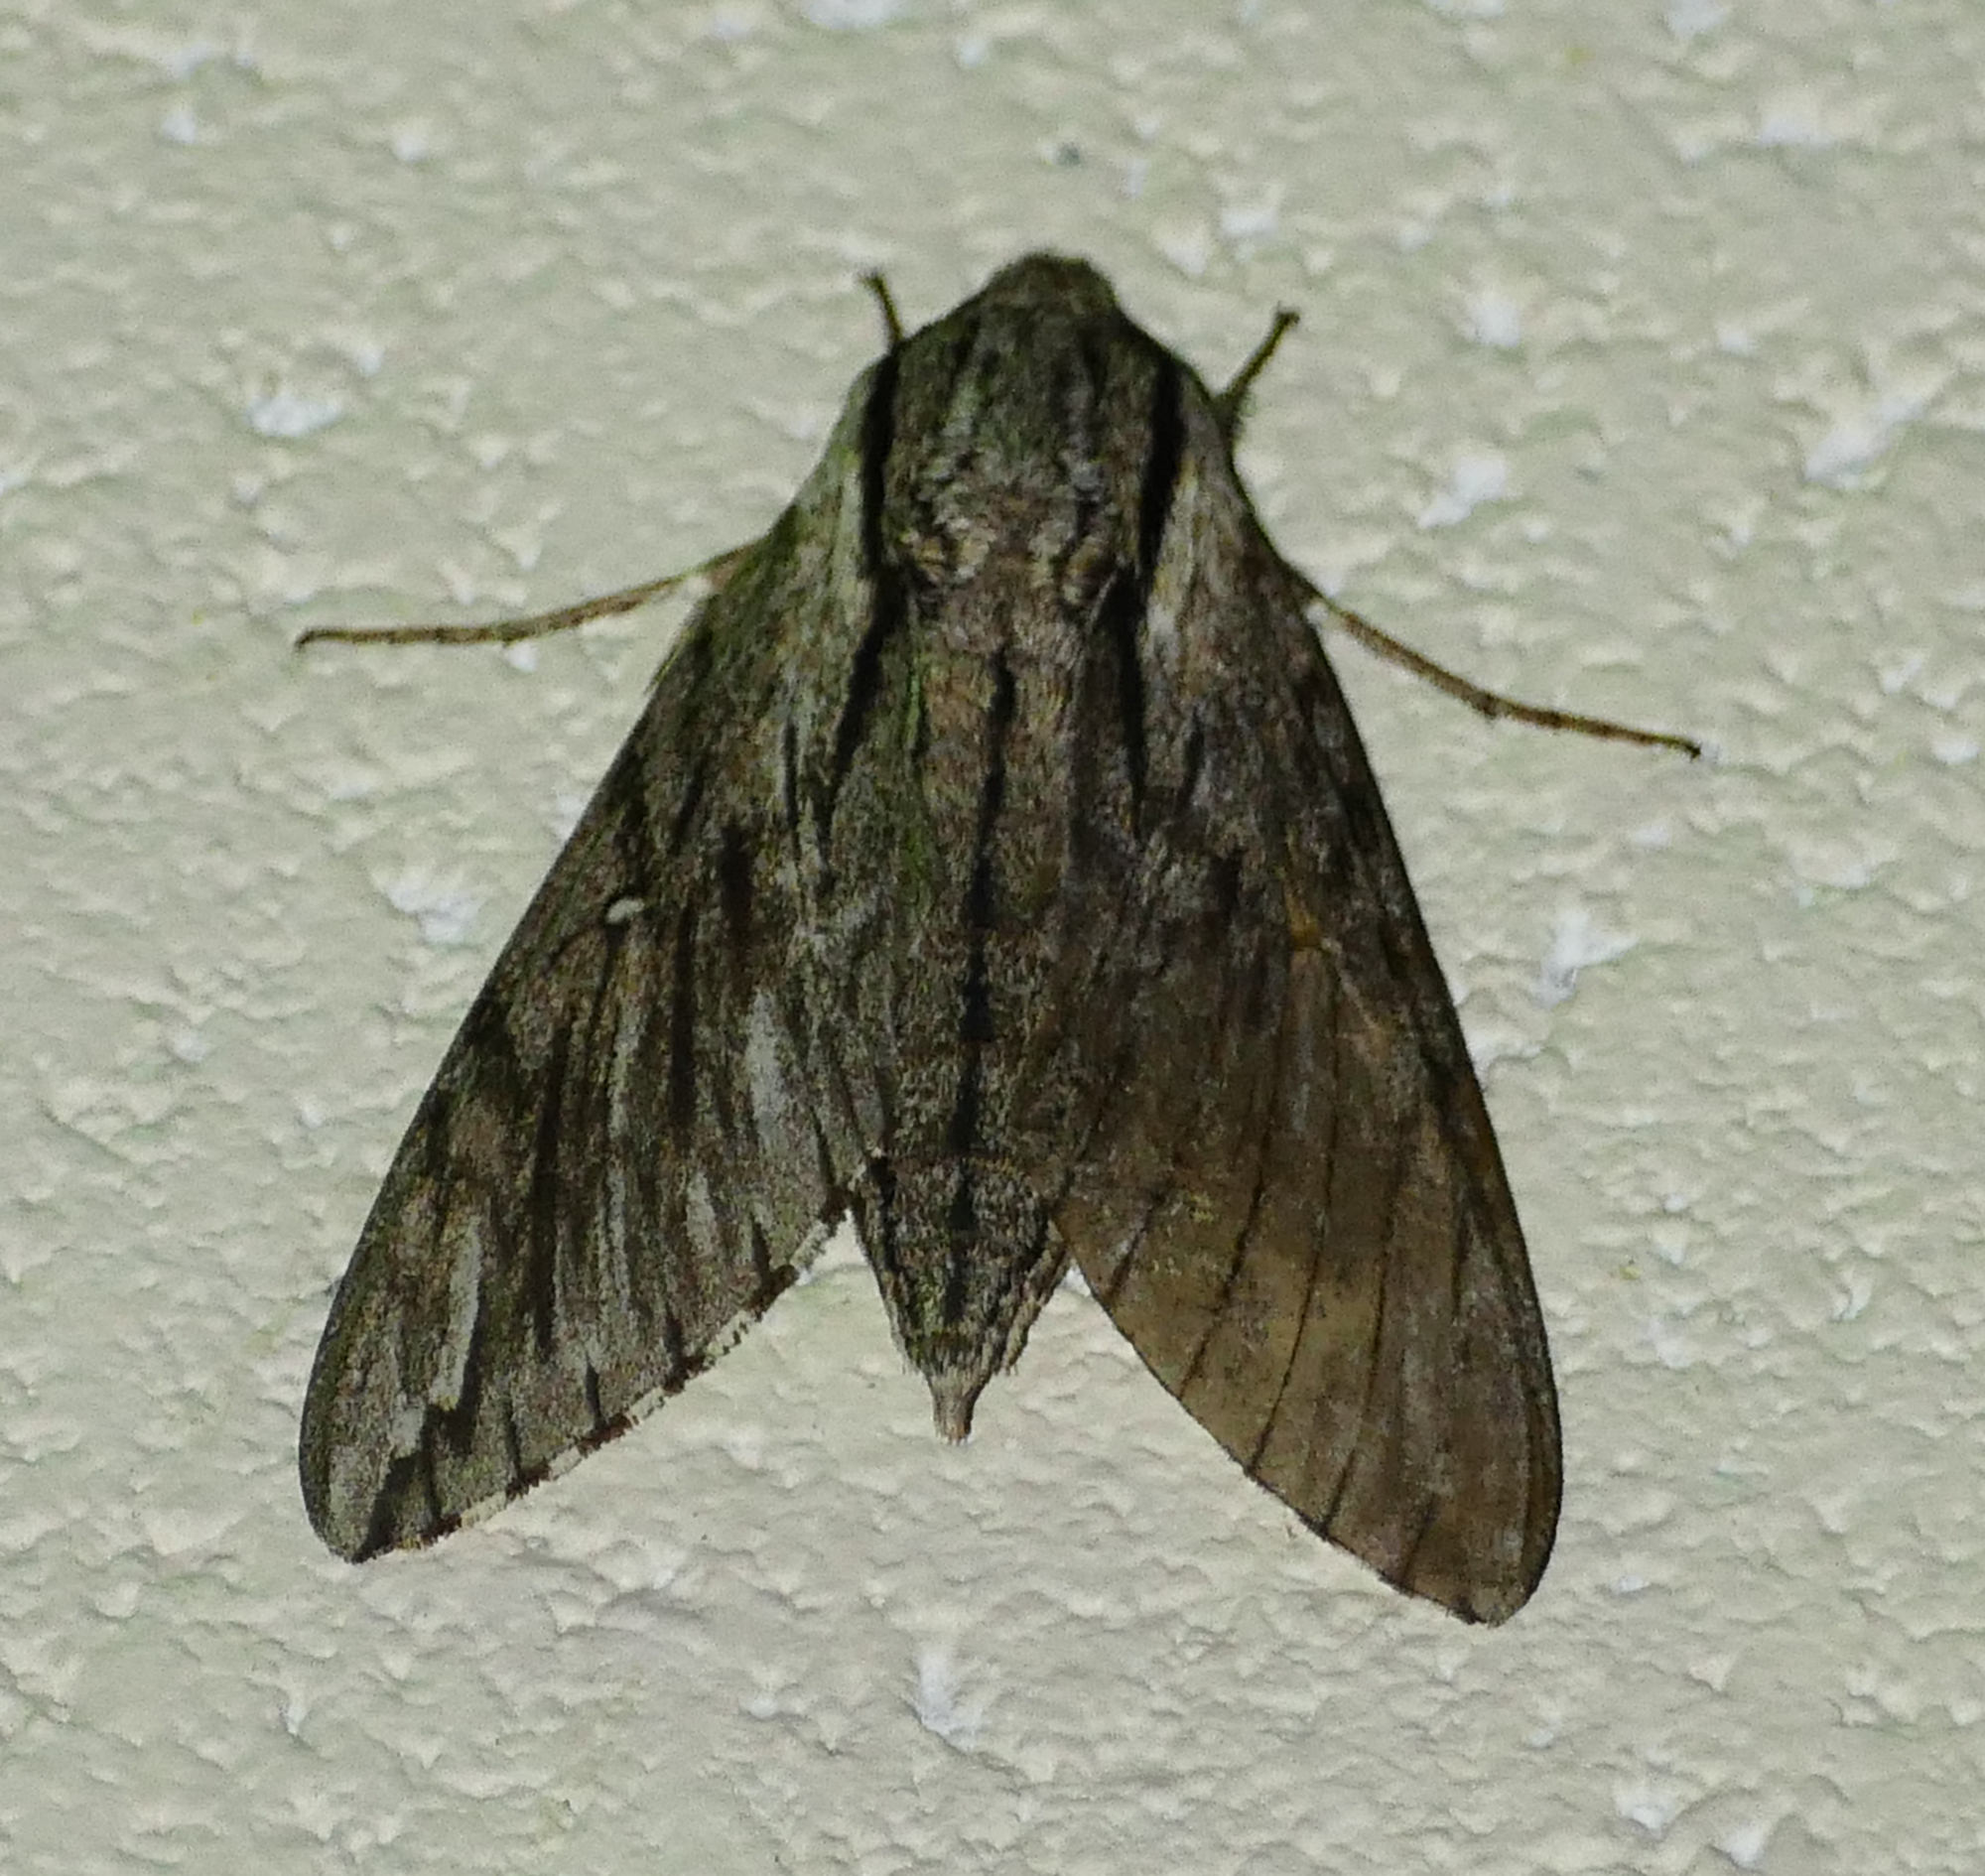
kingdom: Animalia
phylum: Arthropoda
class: Insecta
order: Lepidoptera
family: Sphingidae
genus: Paratrea
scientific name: Paratrea plebeja
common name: Plebian sphinx
